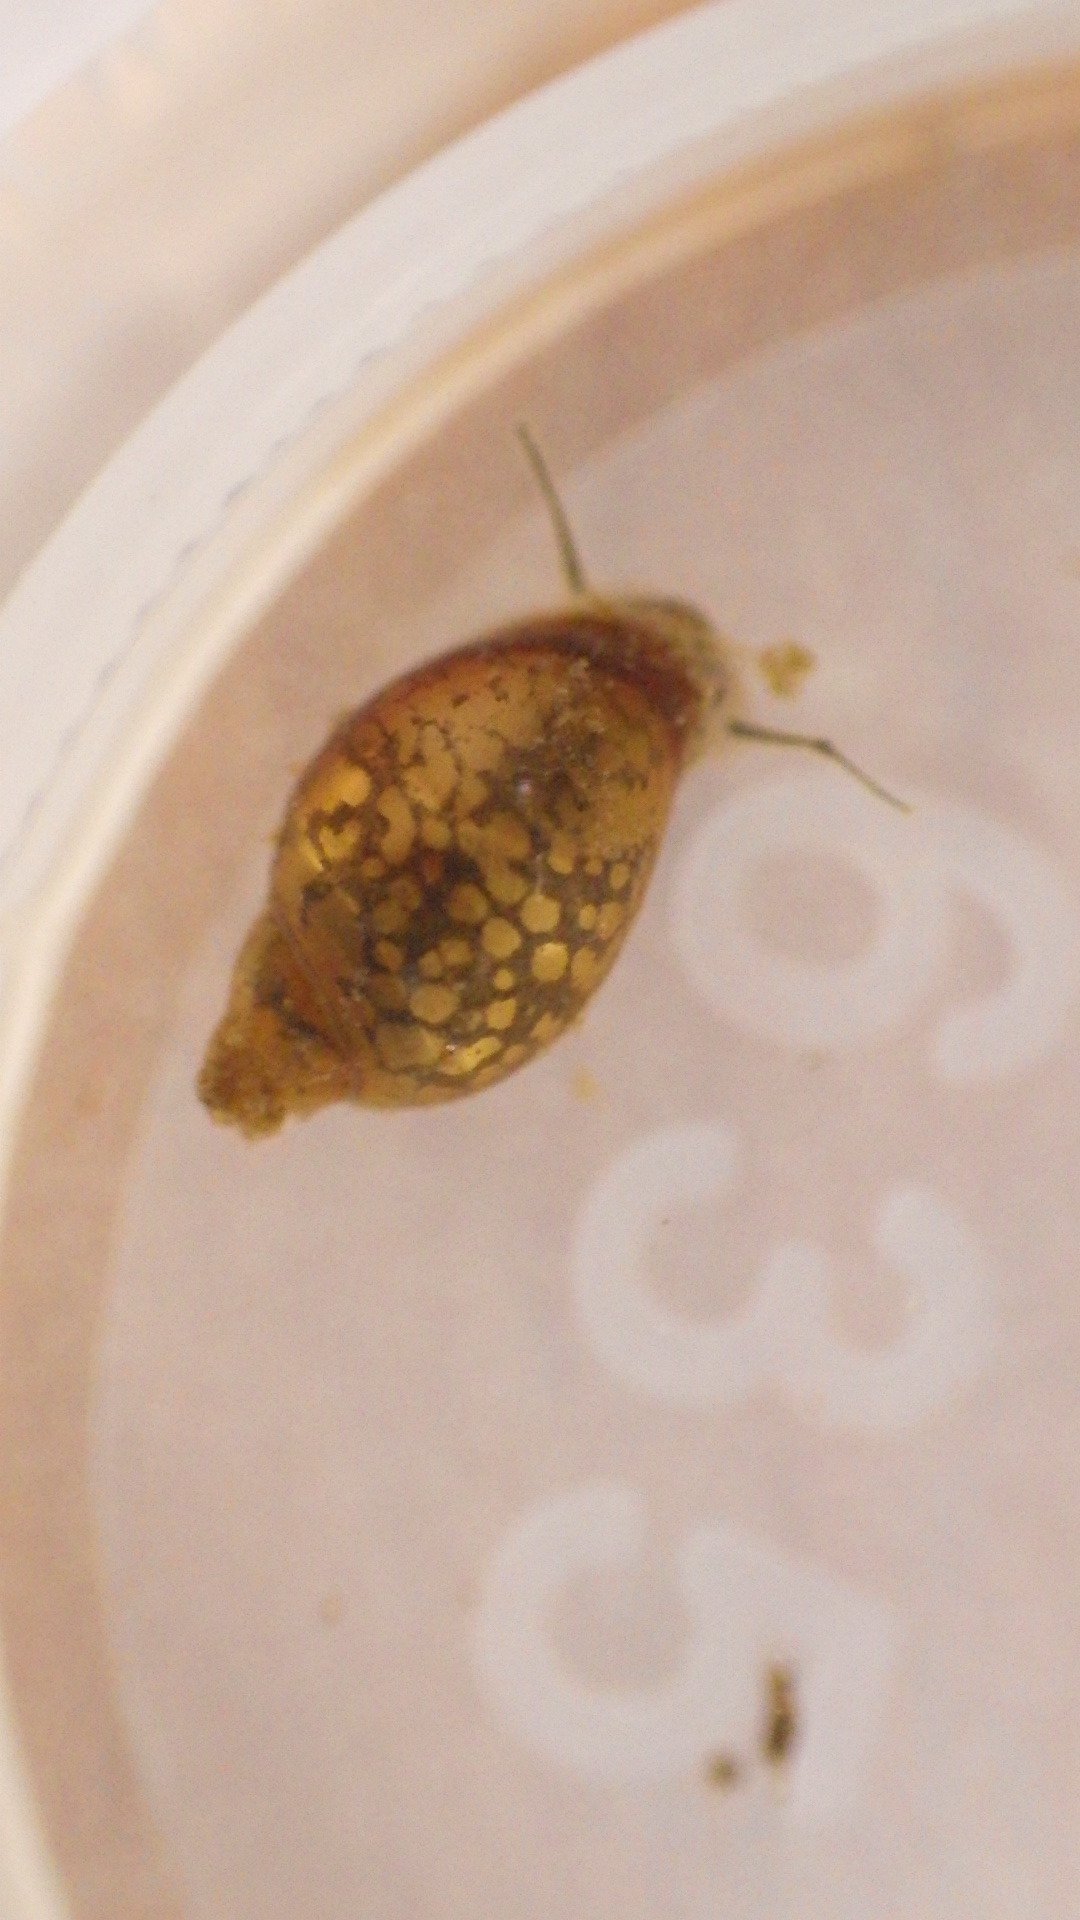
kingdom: Animalia
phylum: Mollusca
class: Gastropoda
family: Physidae
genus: Physella
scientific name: Physella acuta
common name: European physa
